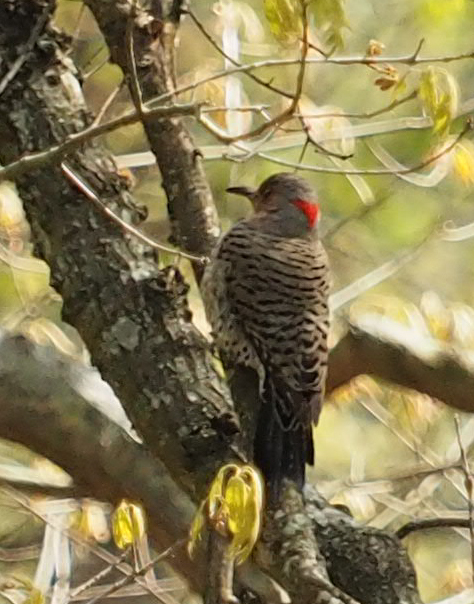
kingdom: Animalia
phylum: Chordata
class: Aves
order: Piciformes
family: Picidae
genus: Colaptes
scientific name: Colaptes auratus
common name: Northern flicker
